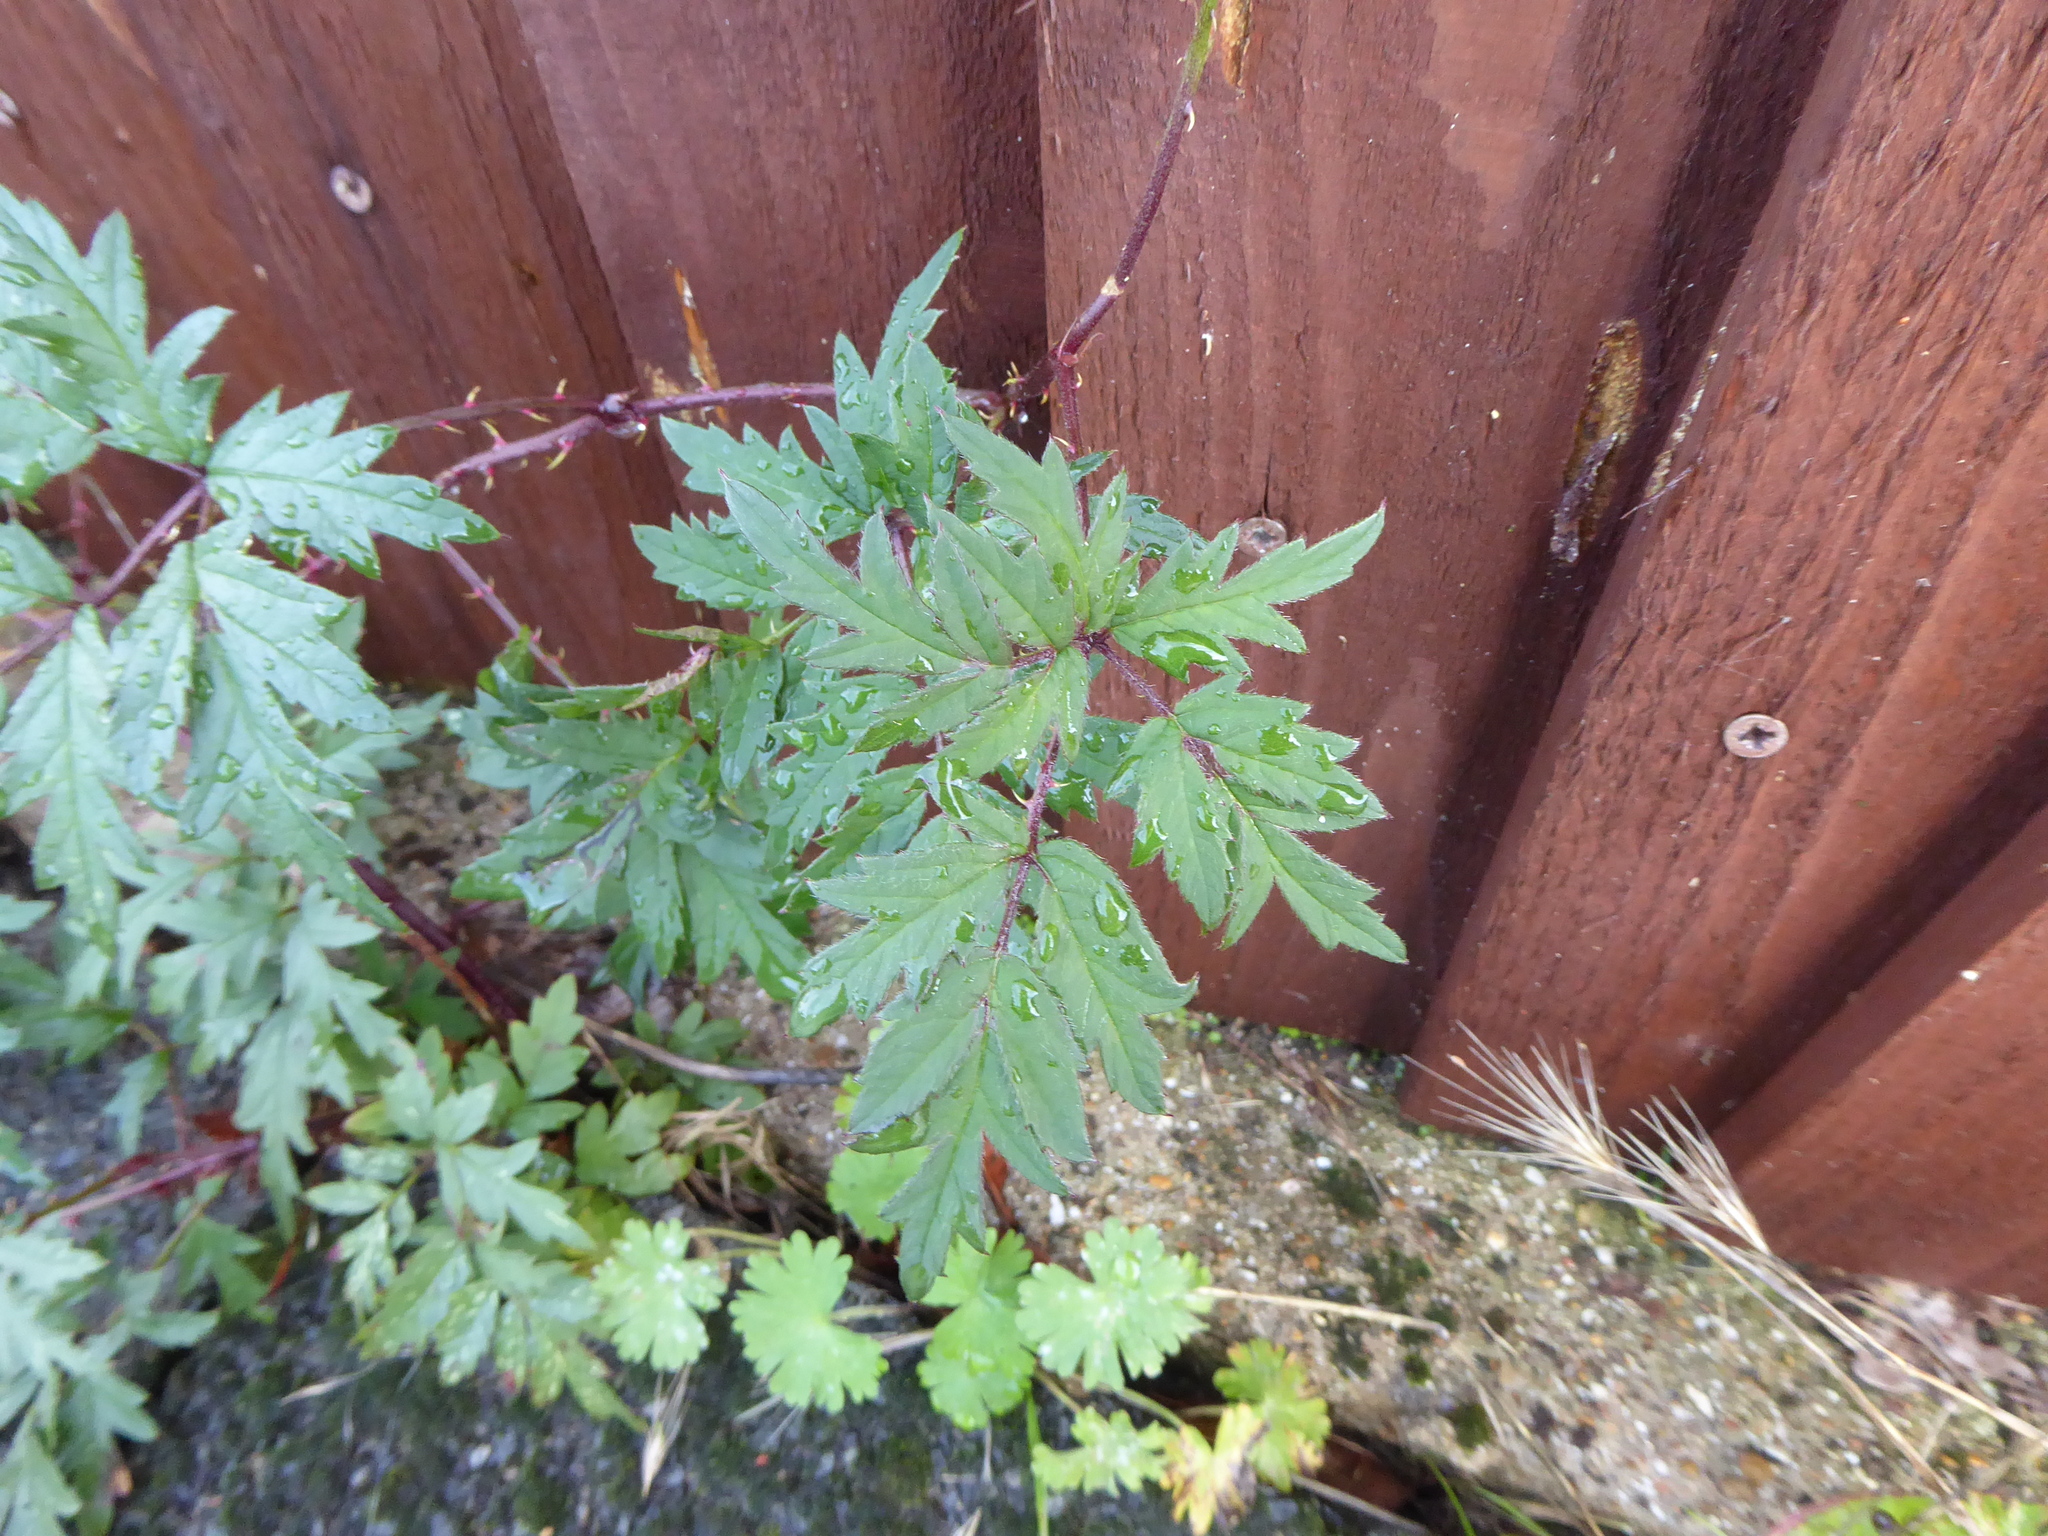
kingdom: Plantae
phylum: Tracheophyta
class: Magnoliopsida
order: Rosales
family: Rosaceae
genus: Rubus
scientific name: Rubus laciniatus
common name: Evergreen blackberry
